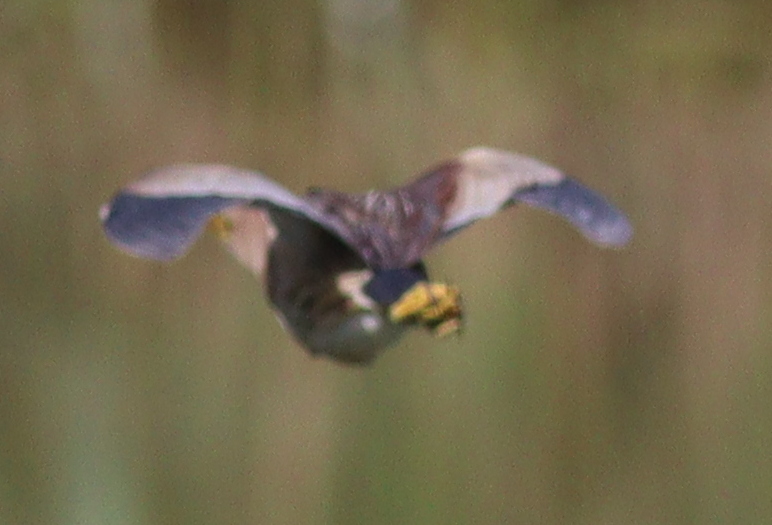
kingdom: Animalia
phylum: Chordata
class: Aves
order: Pelecaniformes
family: Ardeidae
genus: Ixobrychus
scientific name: Ixobrychus minutus
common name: Little bittern
